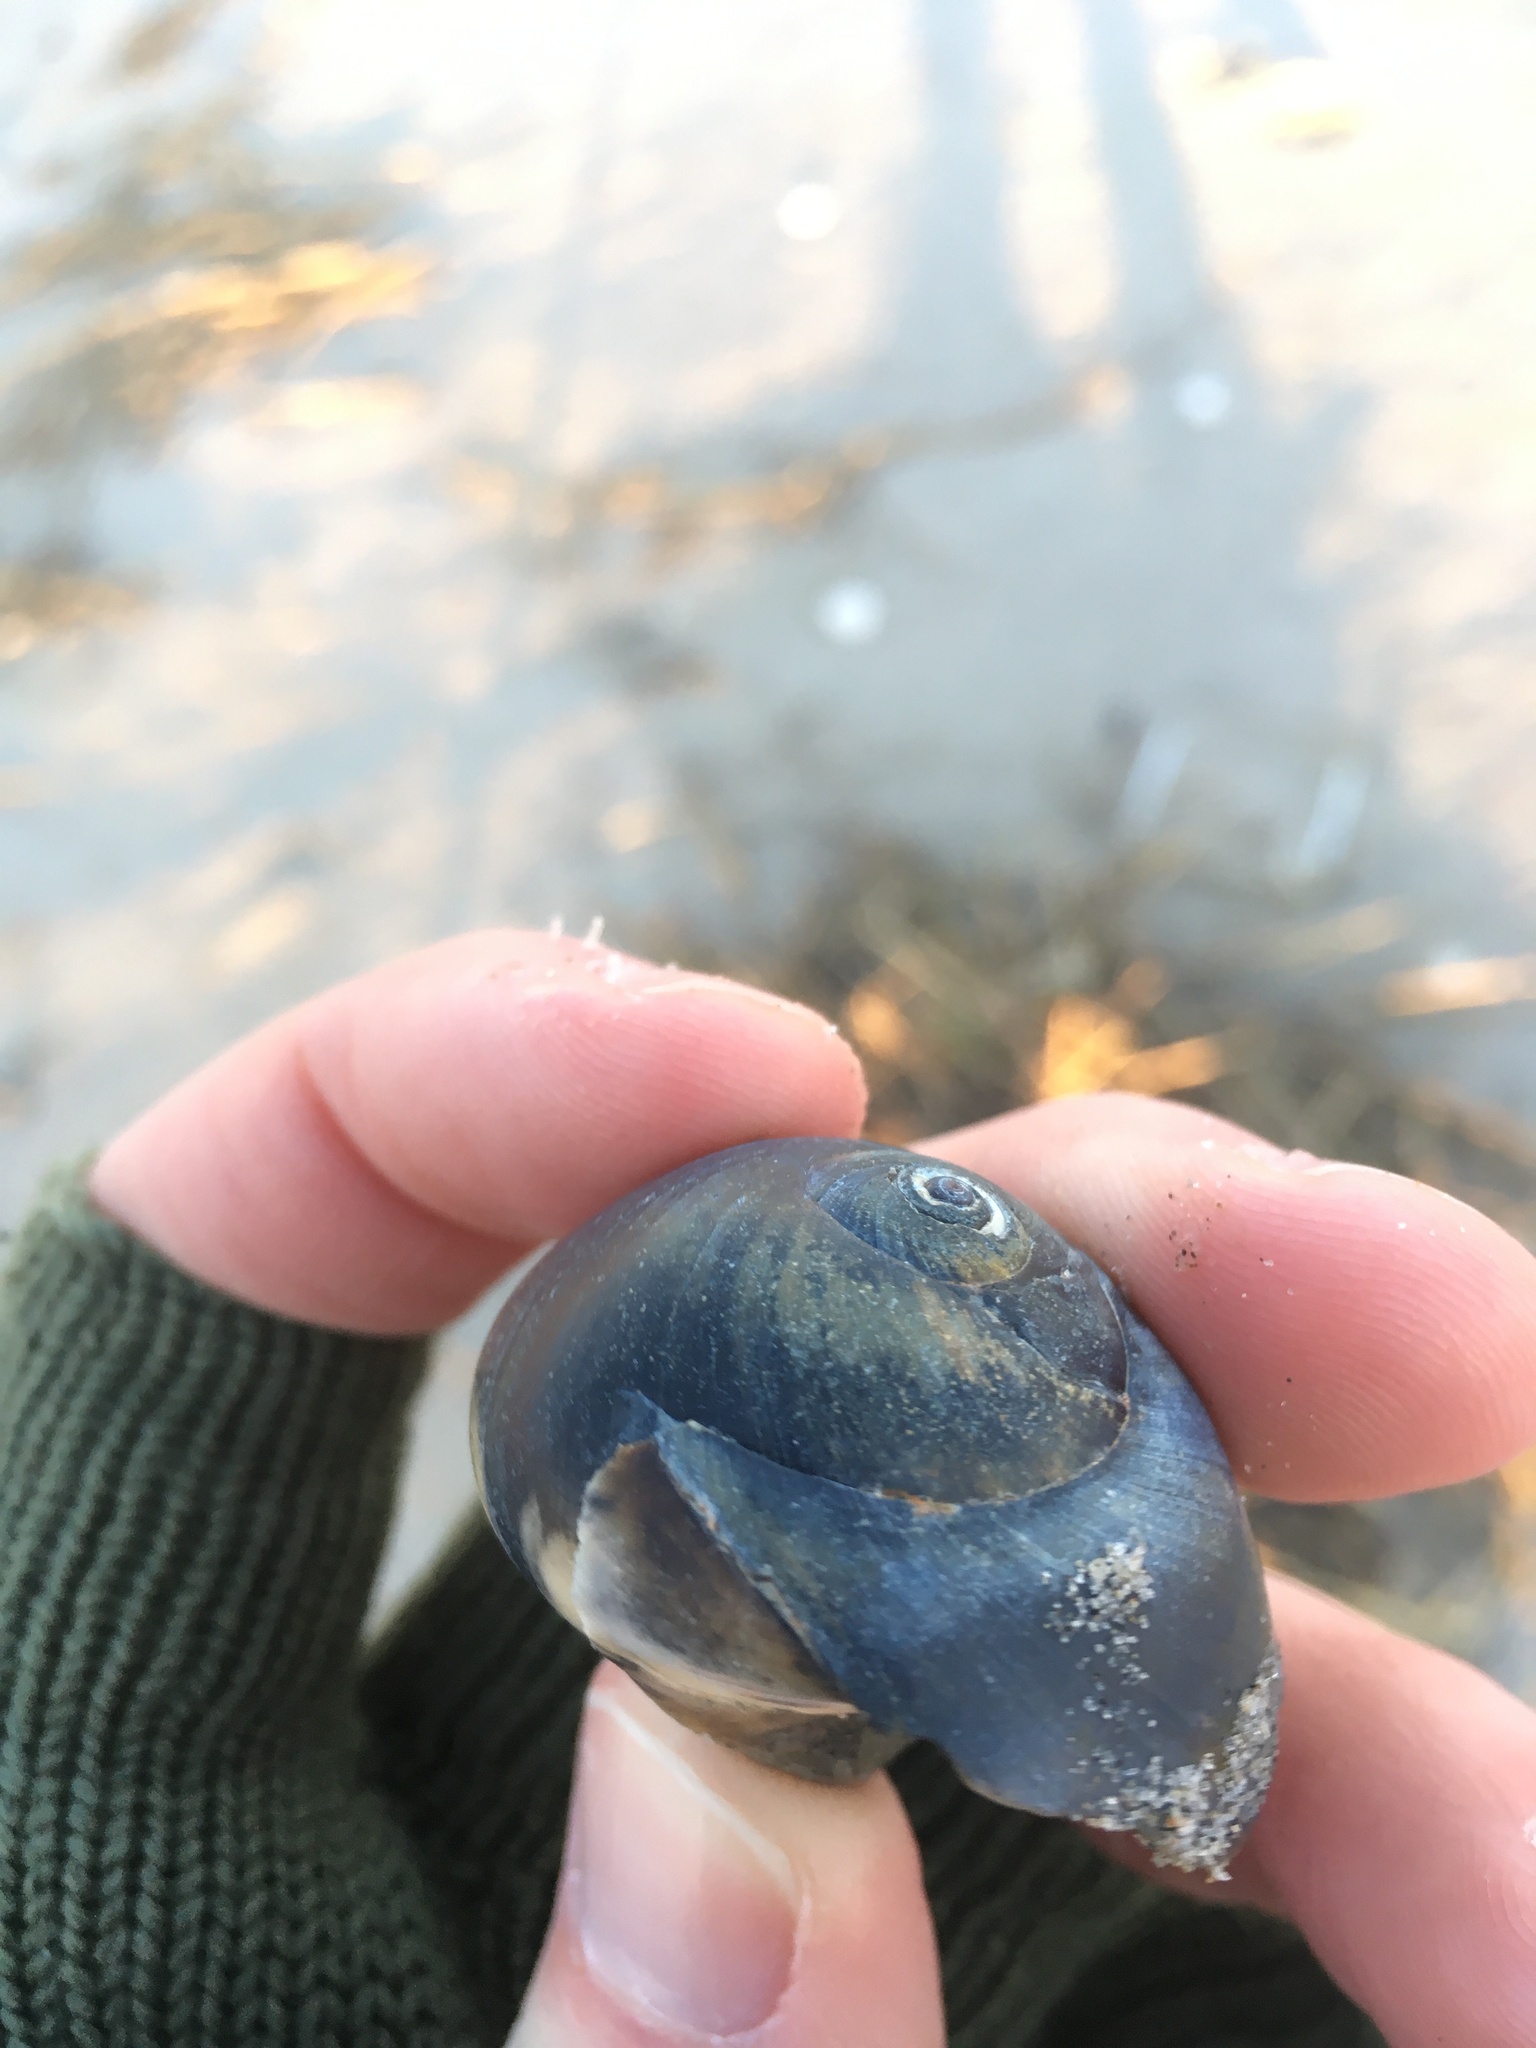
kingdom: Animalia
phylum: Mollusca
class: Gastropoda
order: Littorinimorpha
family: Naticidae
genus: Neverita
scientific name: Neverita duplicata
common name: Lobed moonsnail
